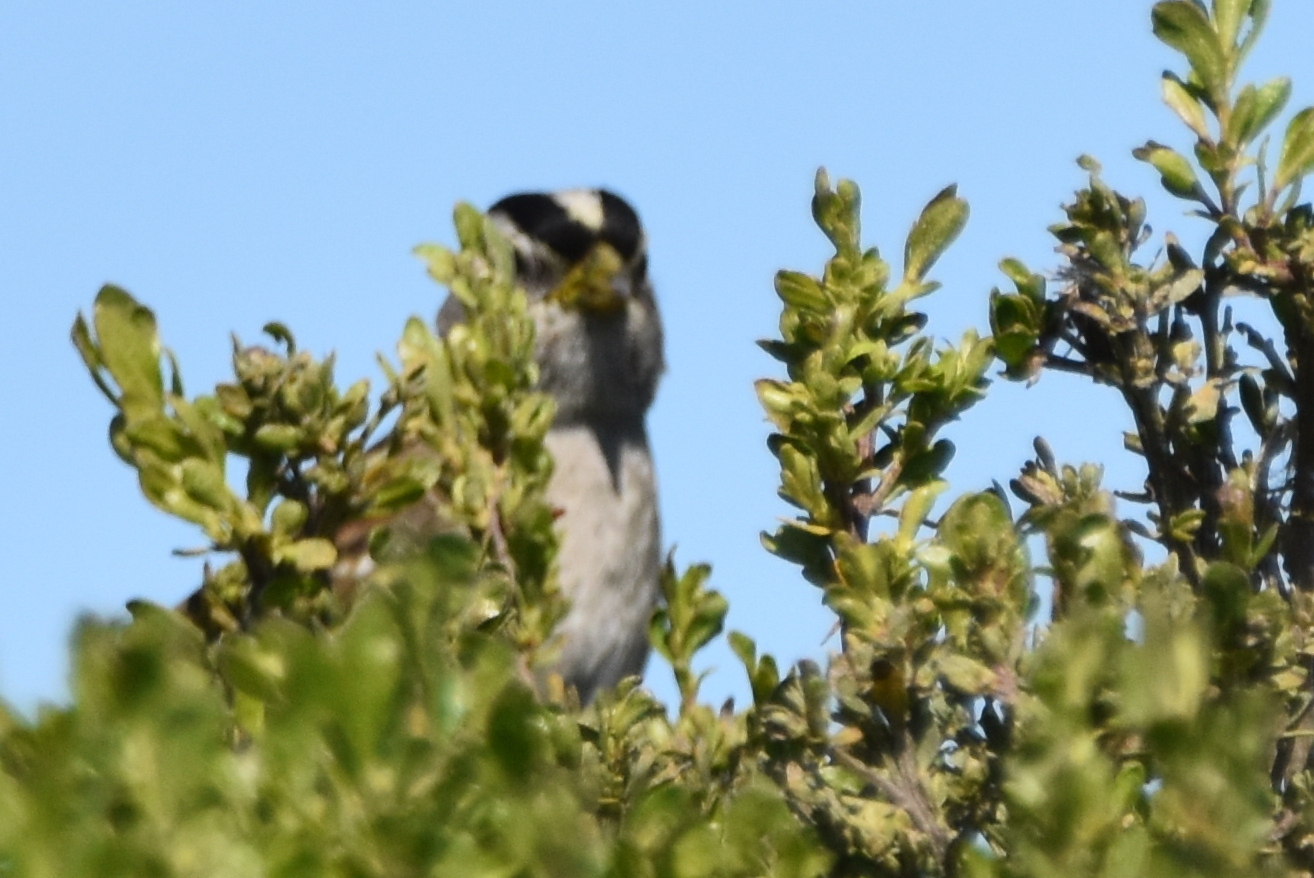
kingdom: Animalia
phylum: Chordata
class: Aves
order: Passeriformes
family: Passerellidae
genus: Zonotrichia
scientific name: Zonotrichia leucophrys
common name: White-crowned sparrow
